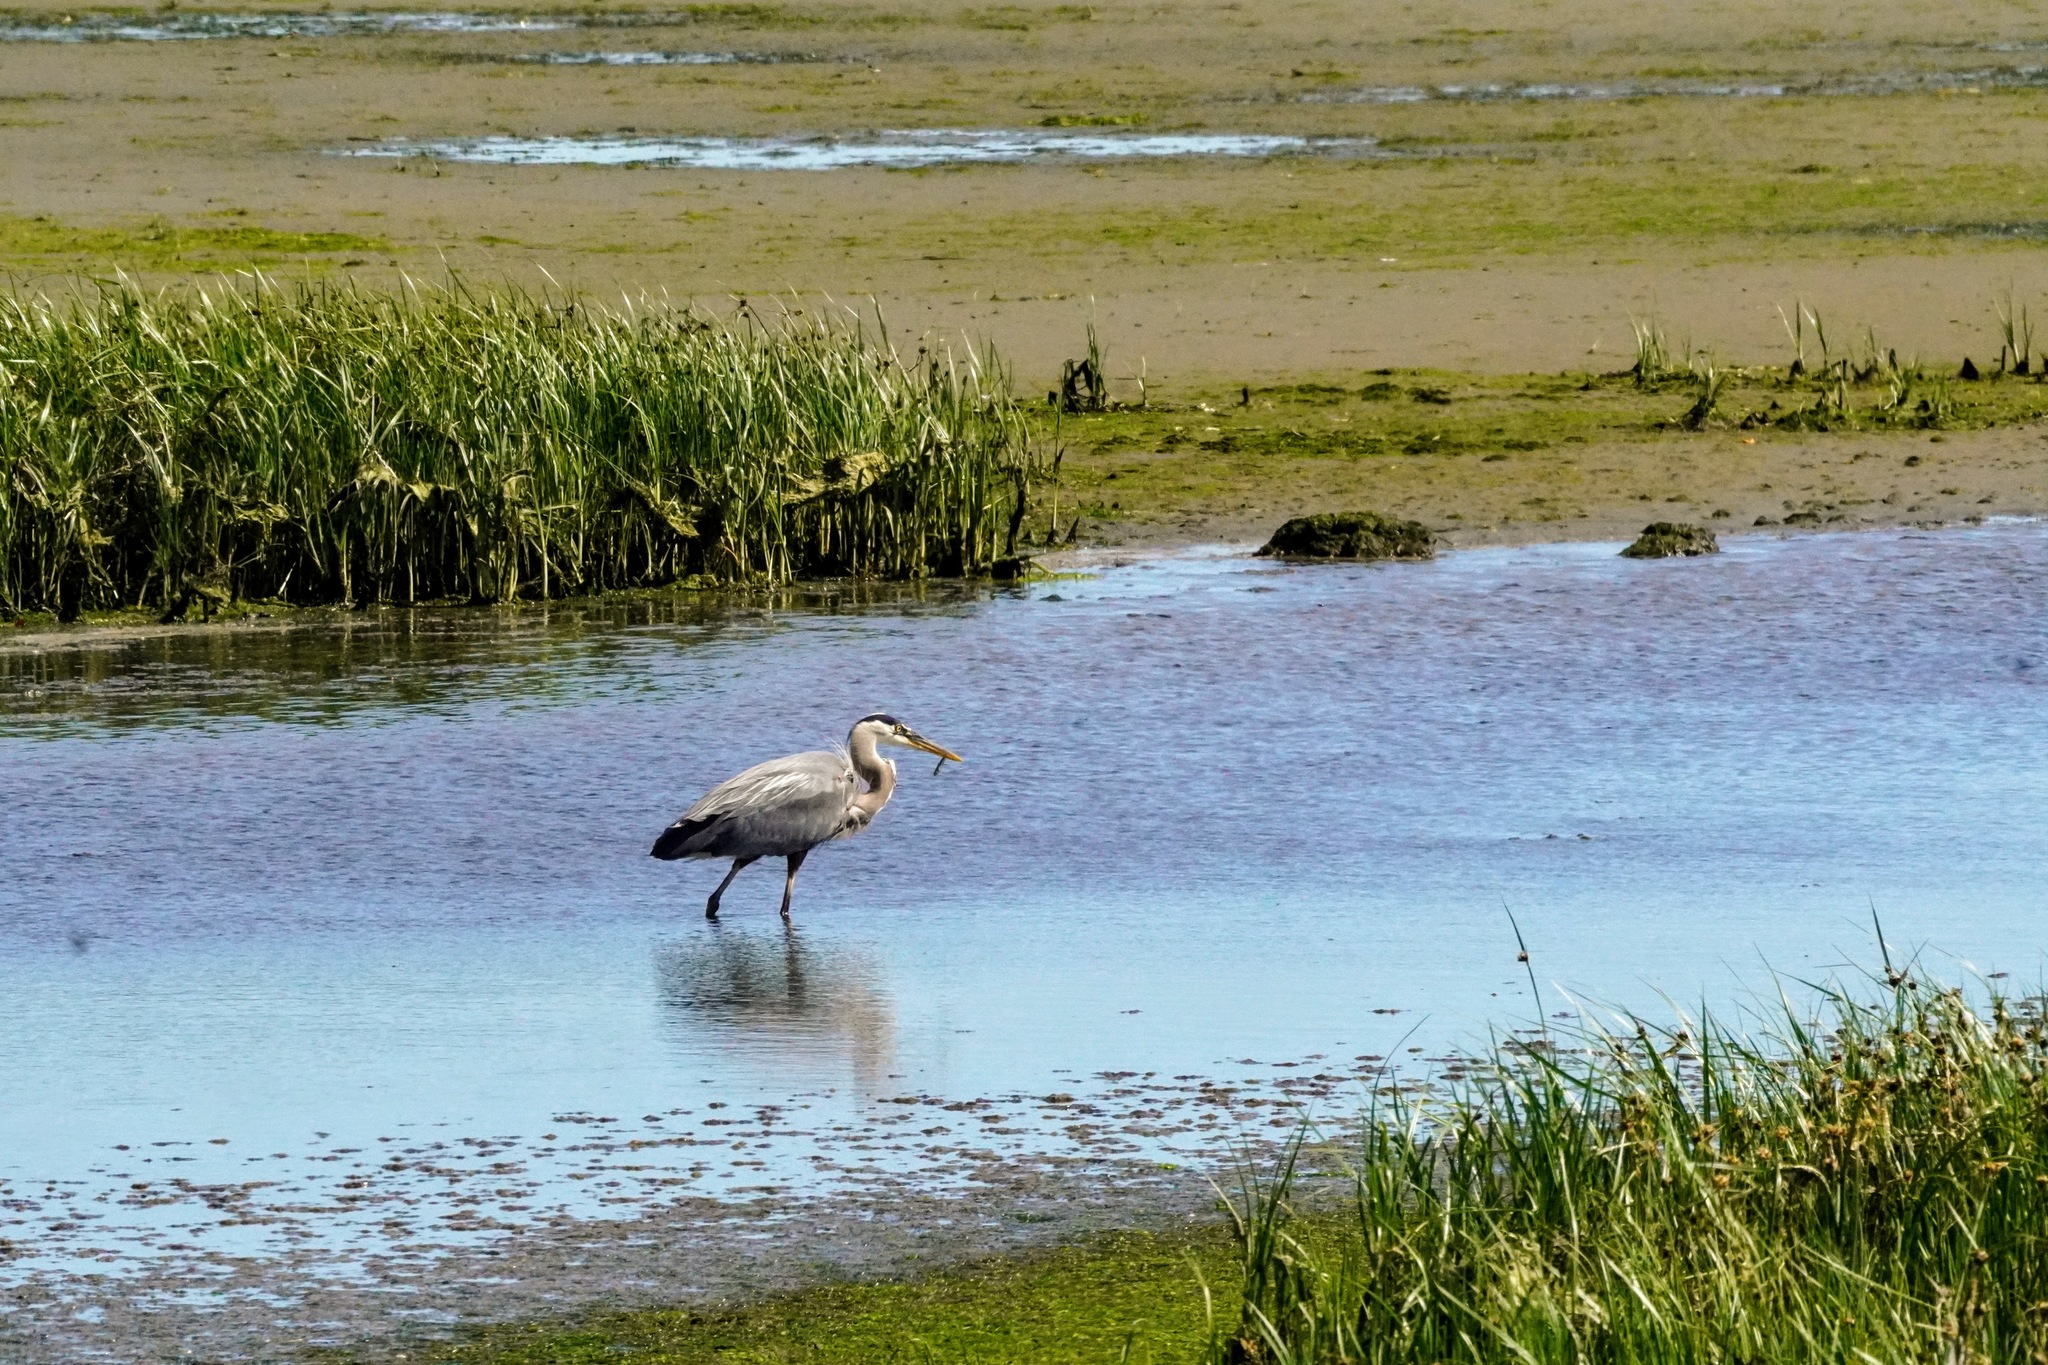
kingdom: Animalia
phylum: Chordata
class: Aves
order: Pelecaniformes
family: Ardeidae
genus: Ardea
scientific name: Ardea herodias
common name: Great blue heron
